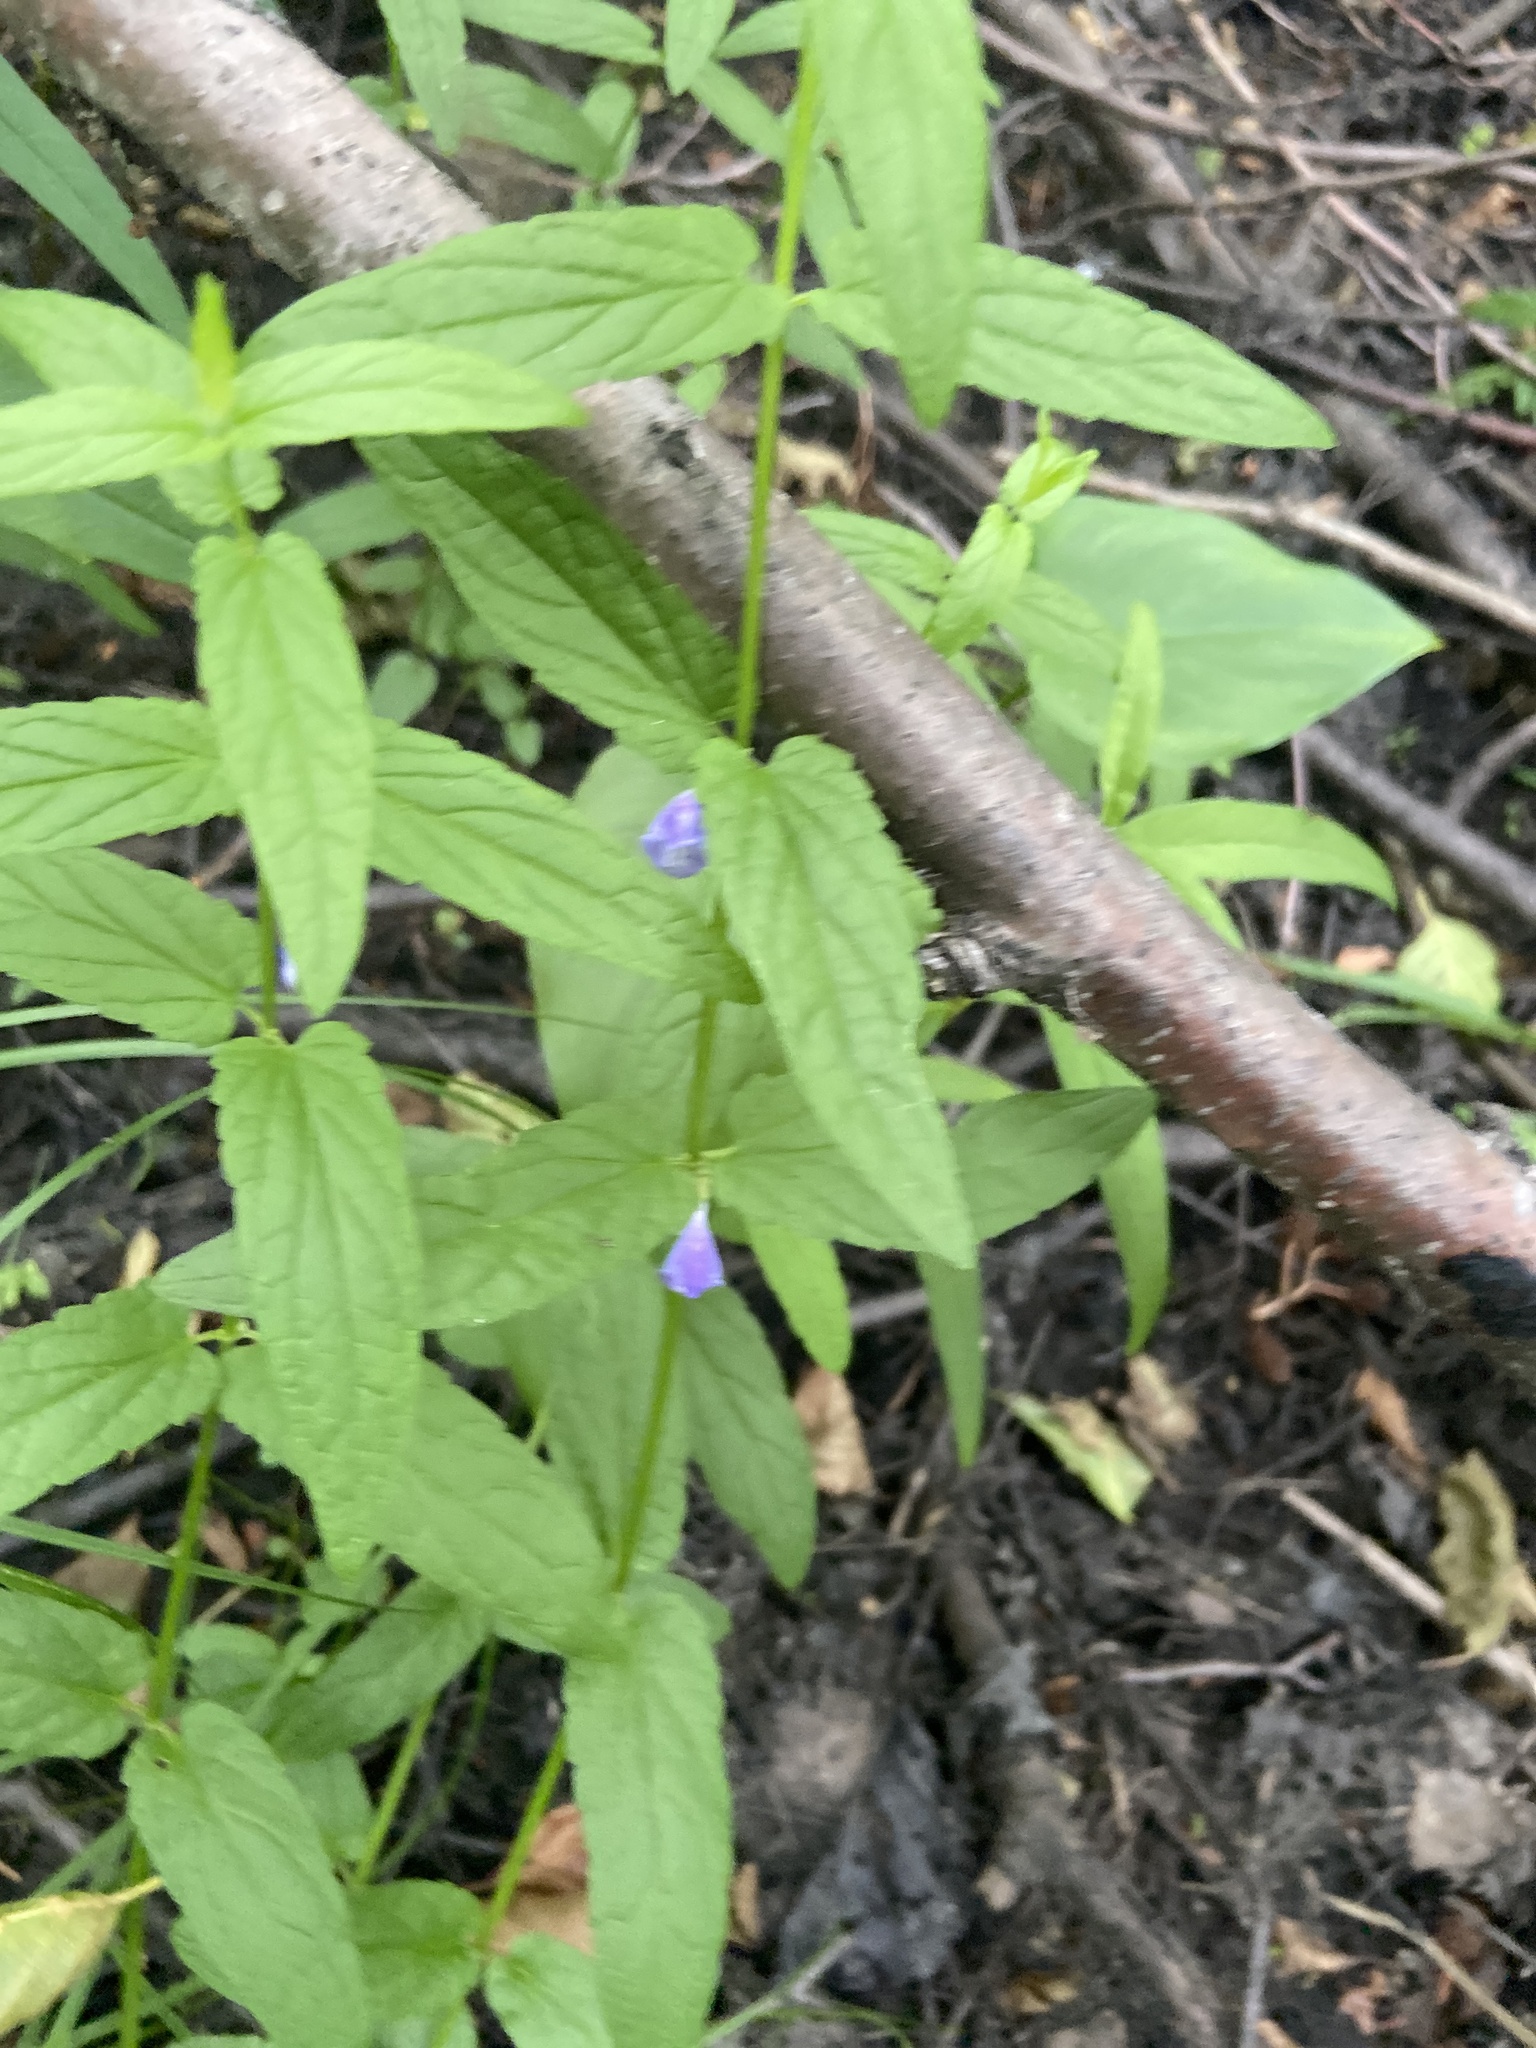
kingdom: Plantae
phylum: Tracheophyta
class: Magnoliopsida
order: Lamiales
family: Lamiaceae
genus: Scutellaria
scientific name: Scutellaria galericulata
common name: Skullcap
